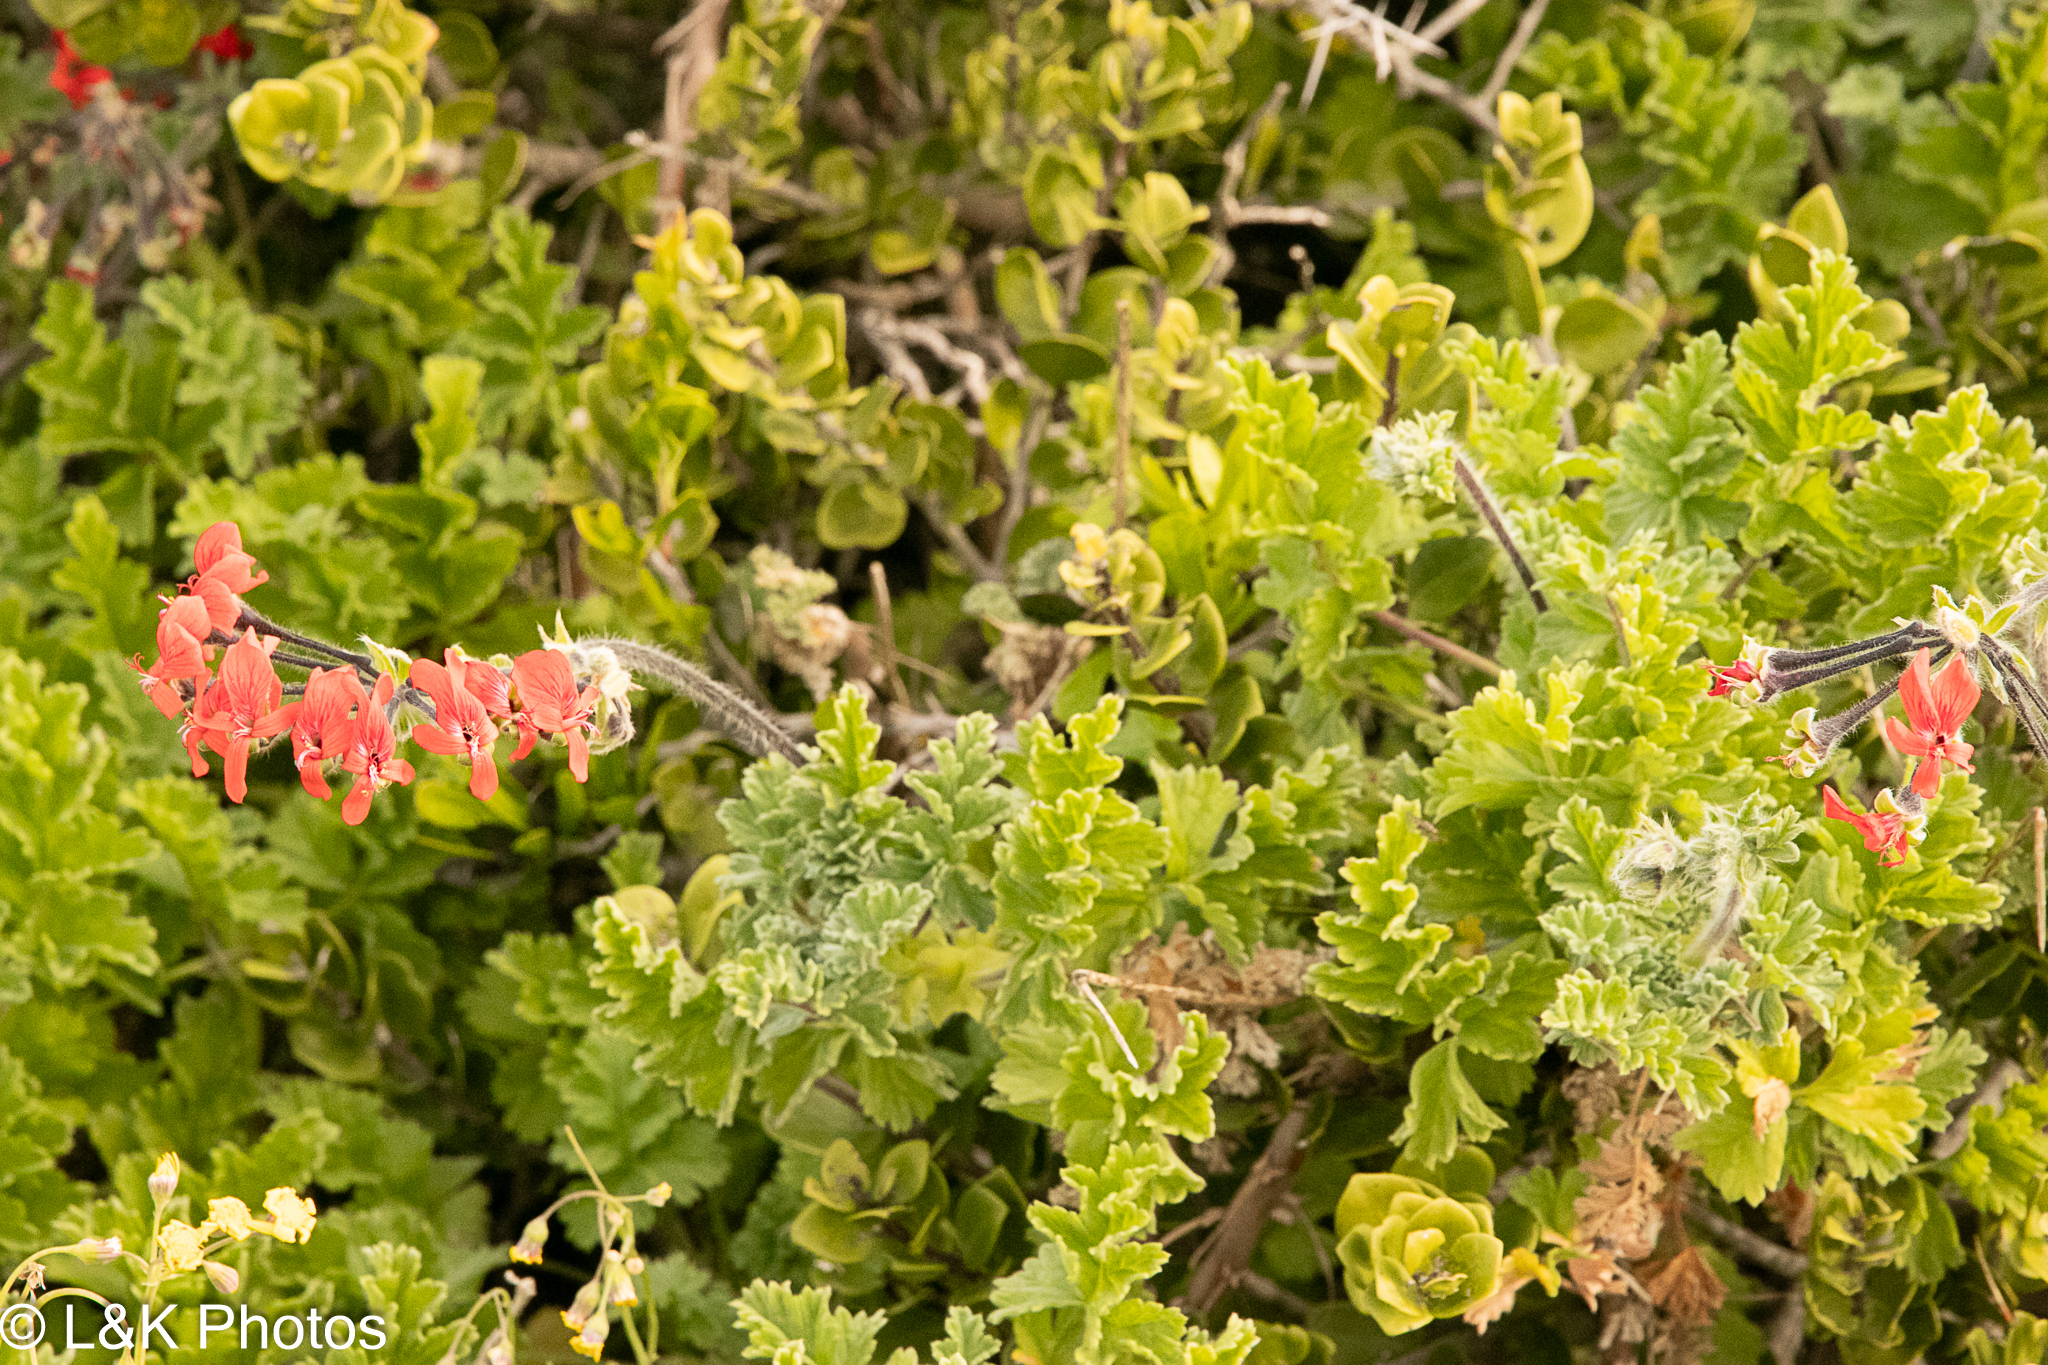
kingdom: Plantae
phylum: Tracheophyta
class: Magnoliopsida
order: Geraniales
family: Geraniaceae
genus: Pelargonium
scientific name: Pelargonium fulgidum
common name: Celandine-leaf pelargonium
